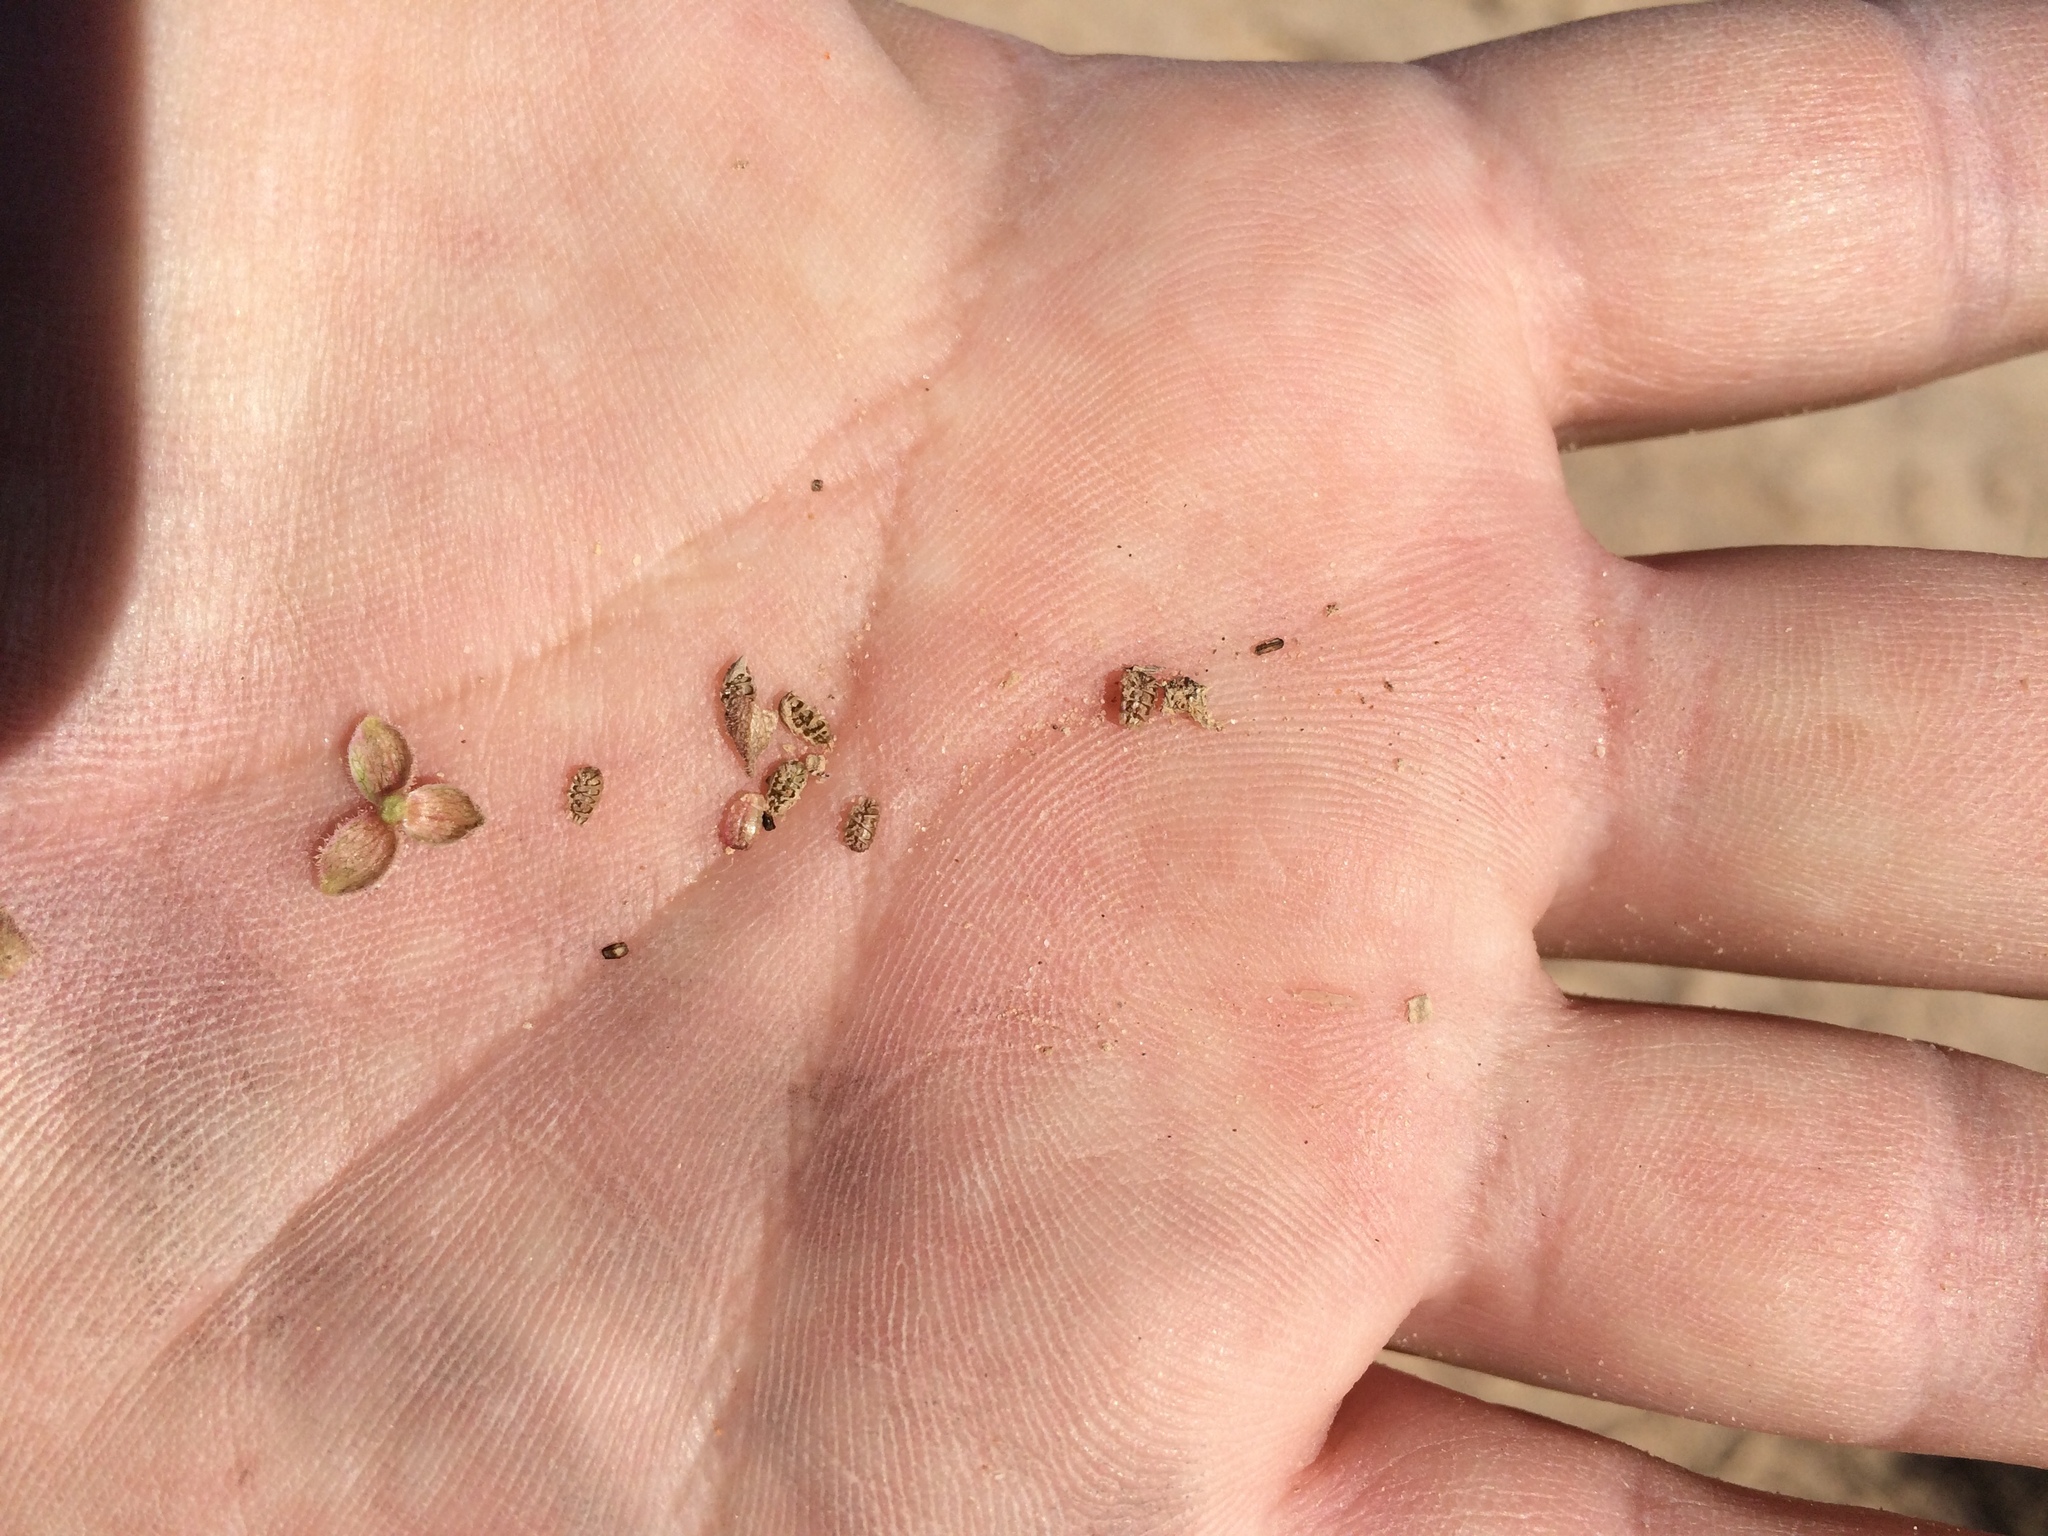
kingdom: Plantae
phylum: Tracheophyta
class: Magnoliopsida
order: Caryophyllales
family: Nyctaginaceae
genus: Allionia
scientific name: Allionia choisyi
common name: Trailing-four-o'clock
